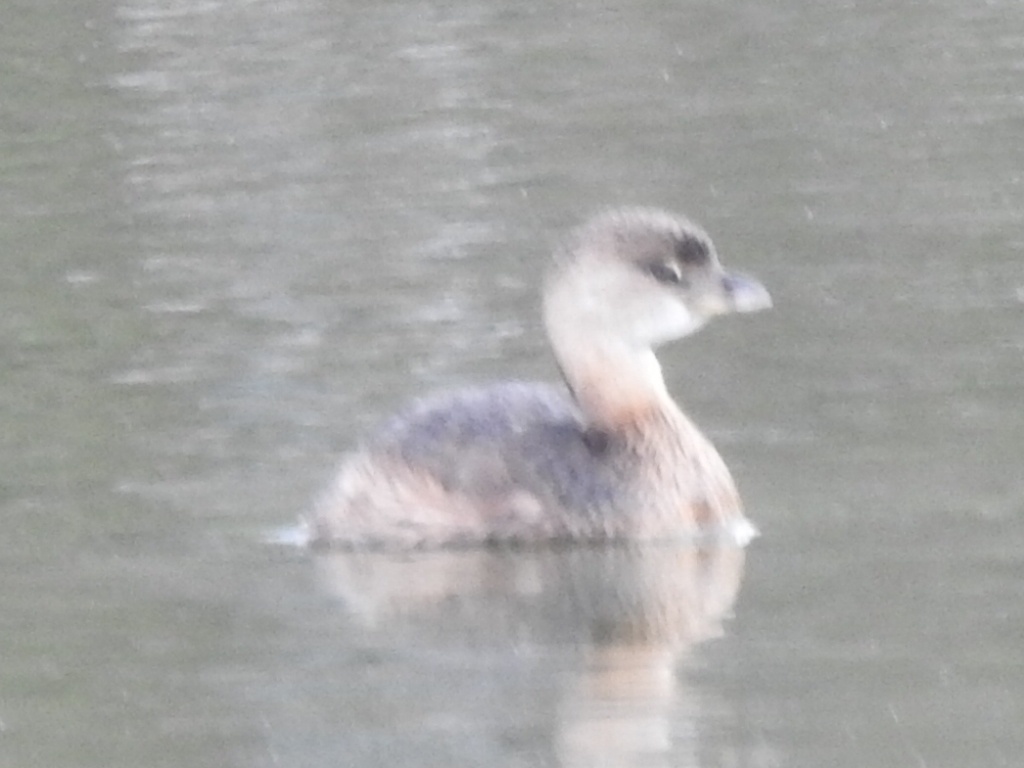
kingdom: Animalia
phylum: Chordata
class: Aves
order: Podicipediformes
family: Podicipedidae
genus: Podilymbus
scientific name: Podilymbus podiceps
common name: Pied-billed grebe
